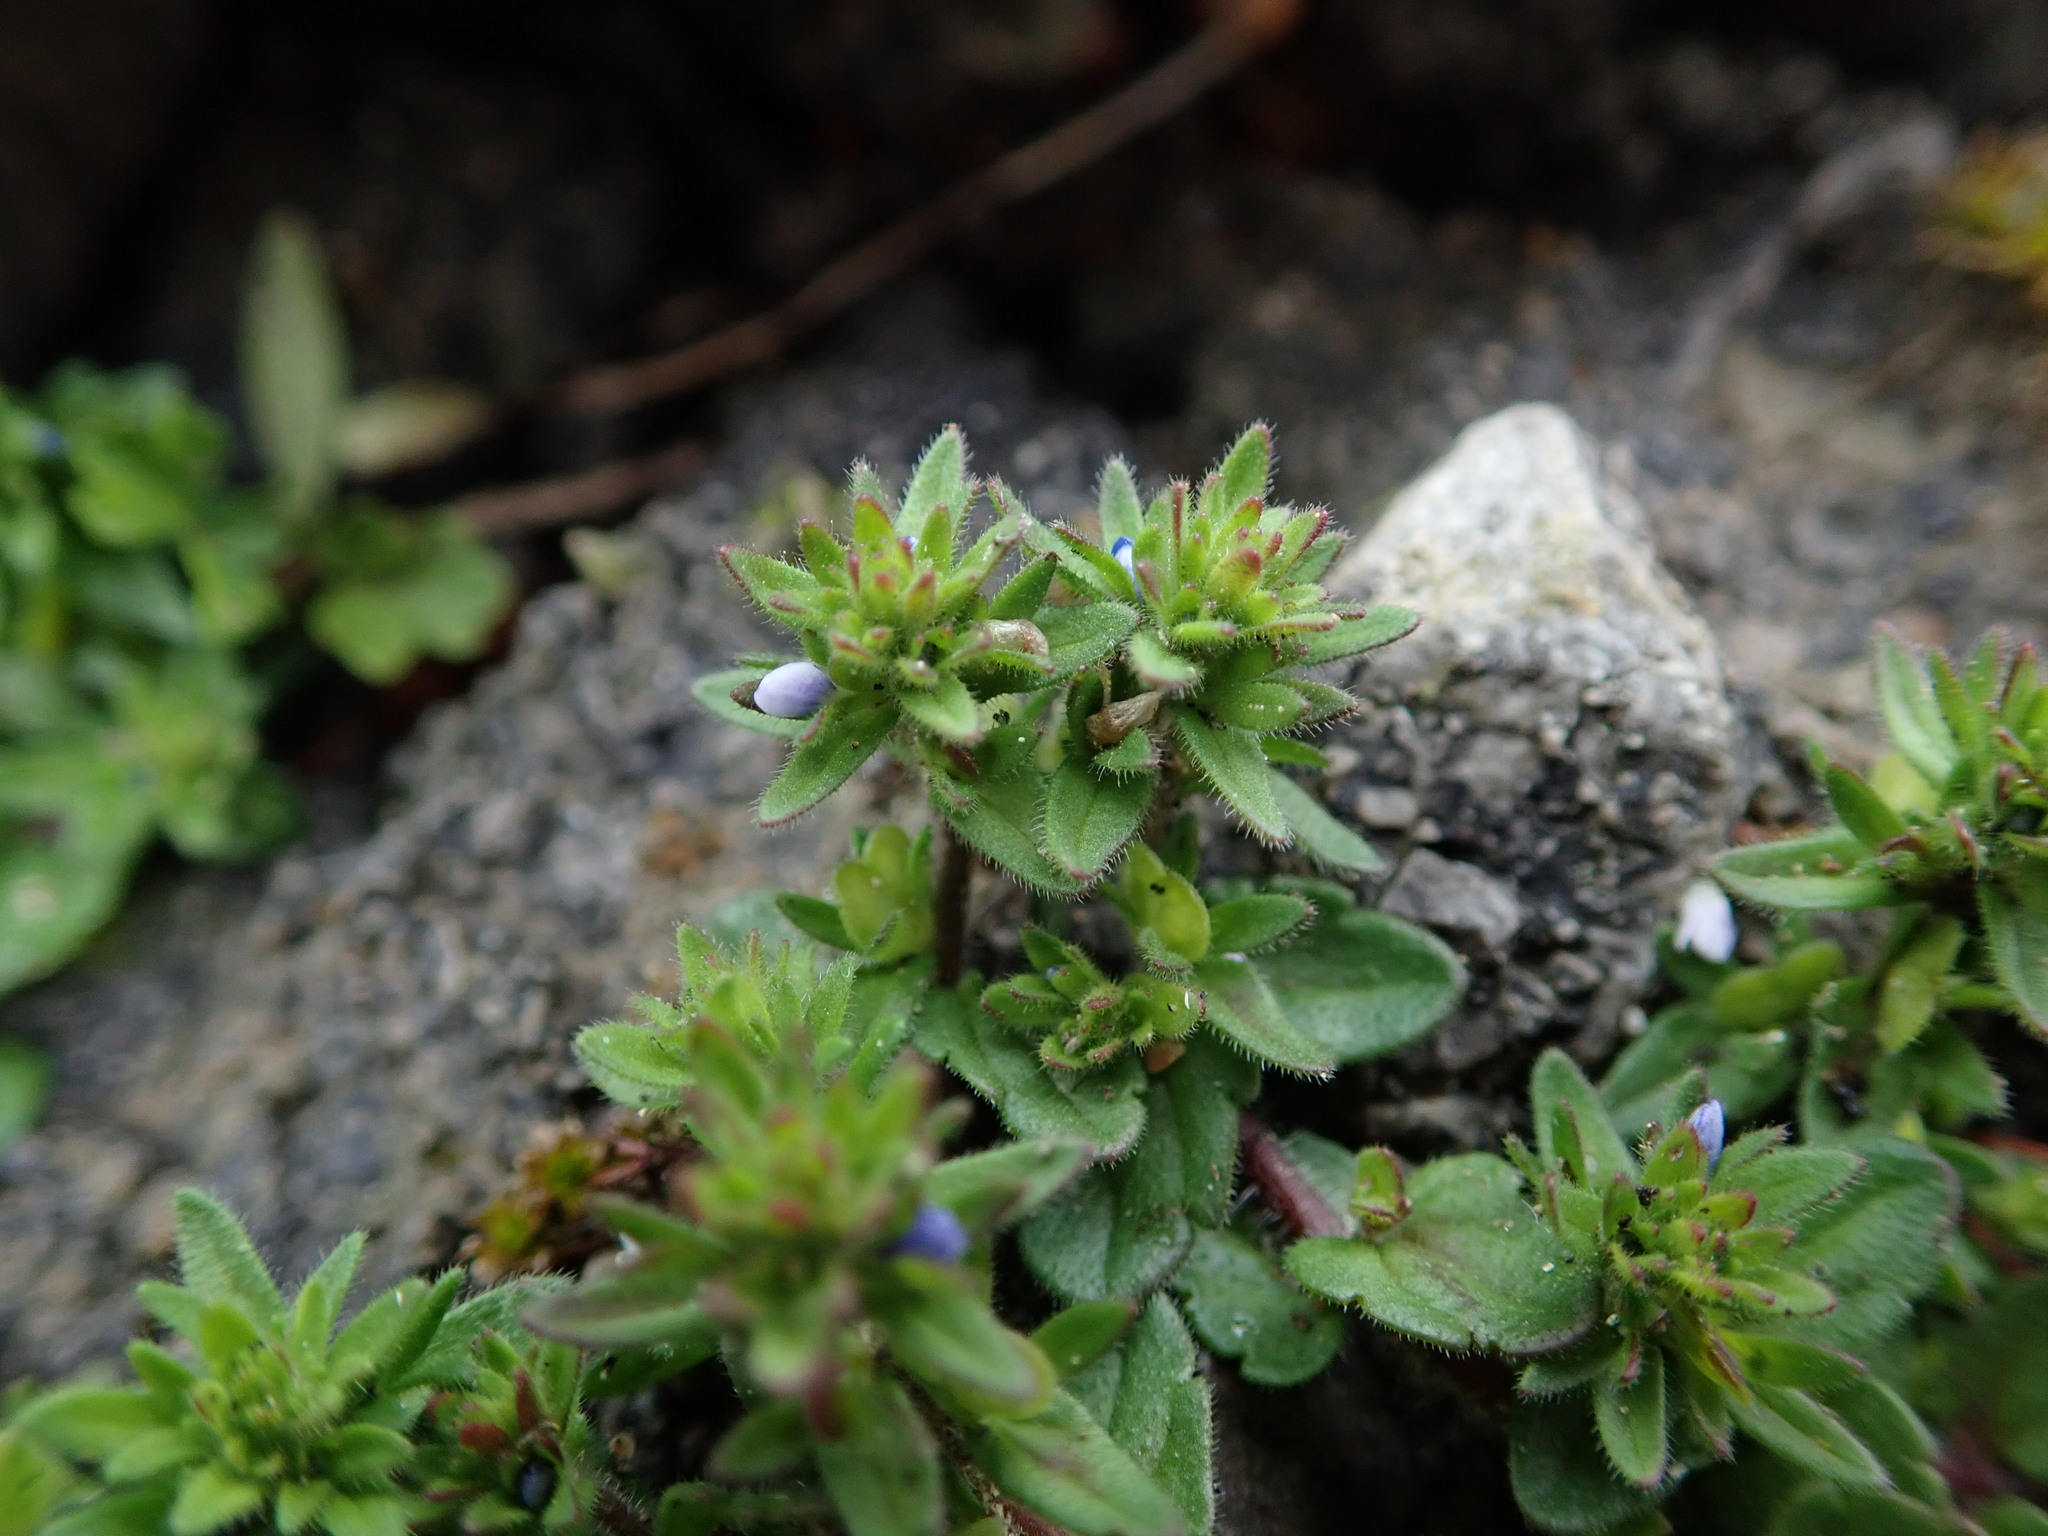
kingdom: Plantae
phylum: Tracheophyta
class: Magnoliopsida
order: Lamiales
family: Plantaginaceae
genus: Veronica
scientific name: Veronica arvensis
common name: Corn speedwell
